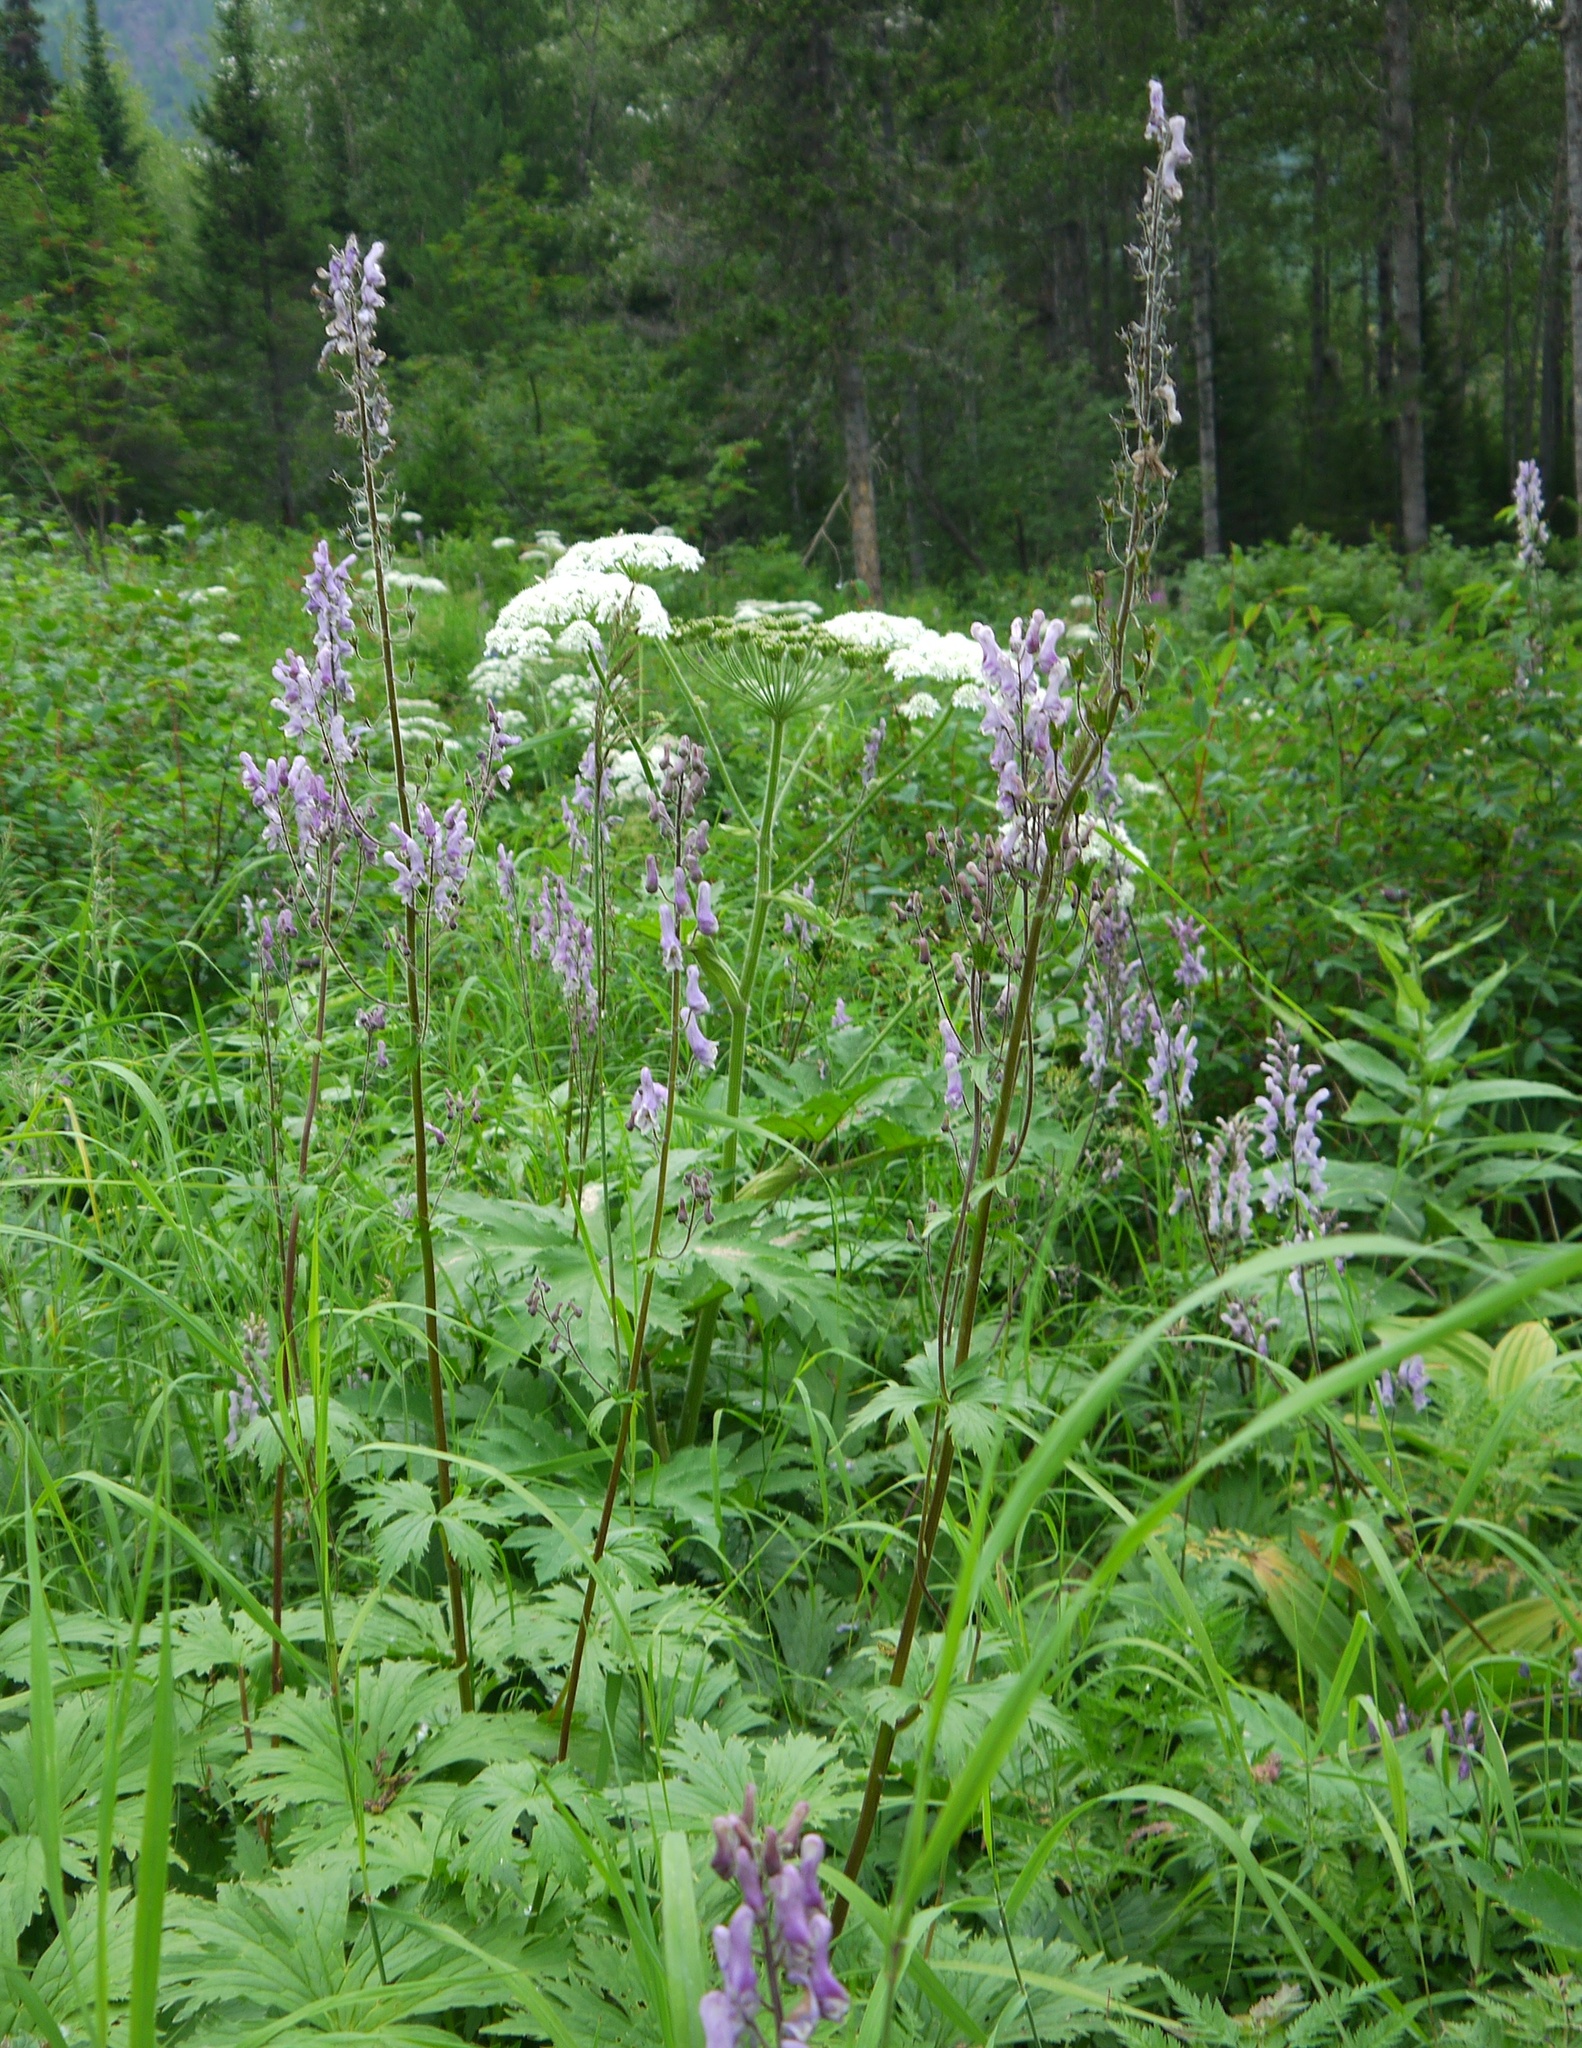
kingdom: Plantae
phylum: Tracheophyta
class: Magnoliopsida
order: Apiales
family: Apiaceae
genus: Heracleum
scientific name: Heracleum dissectum
